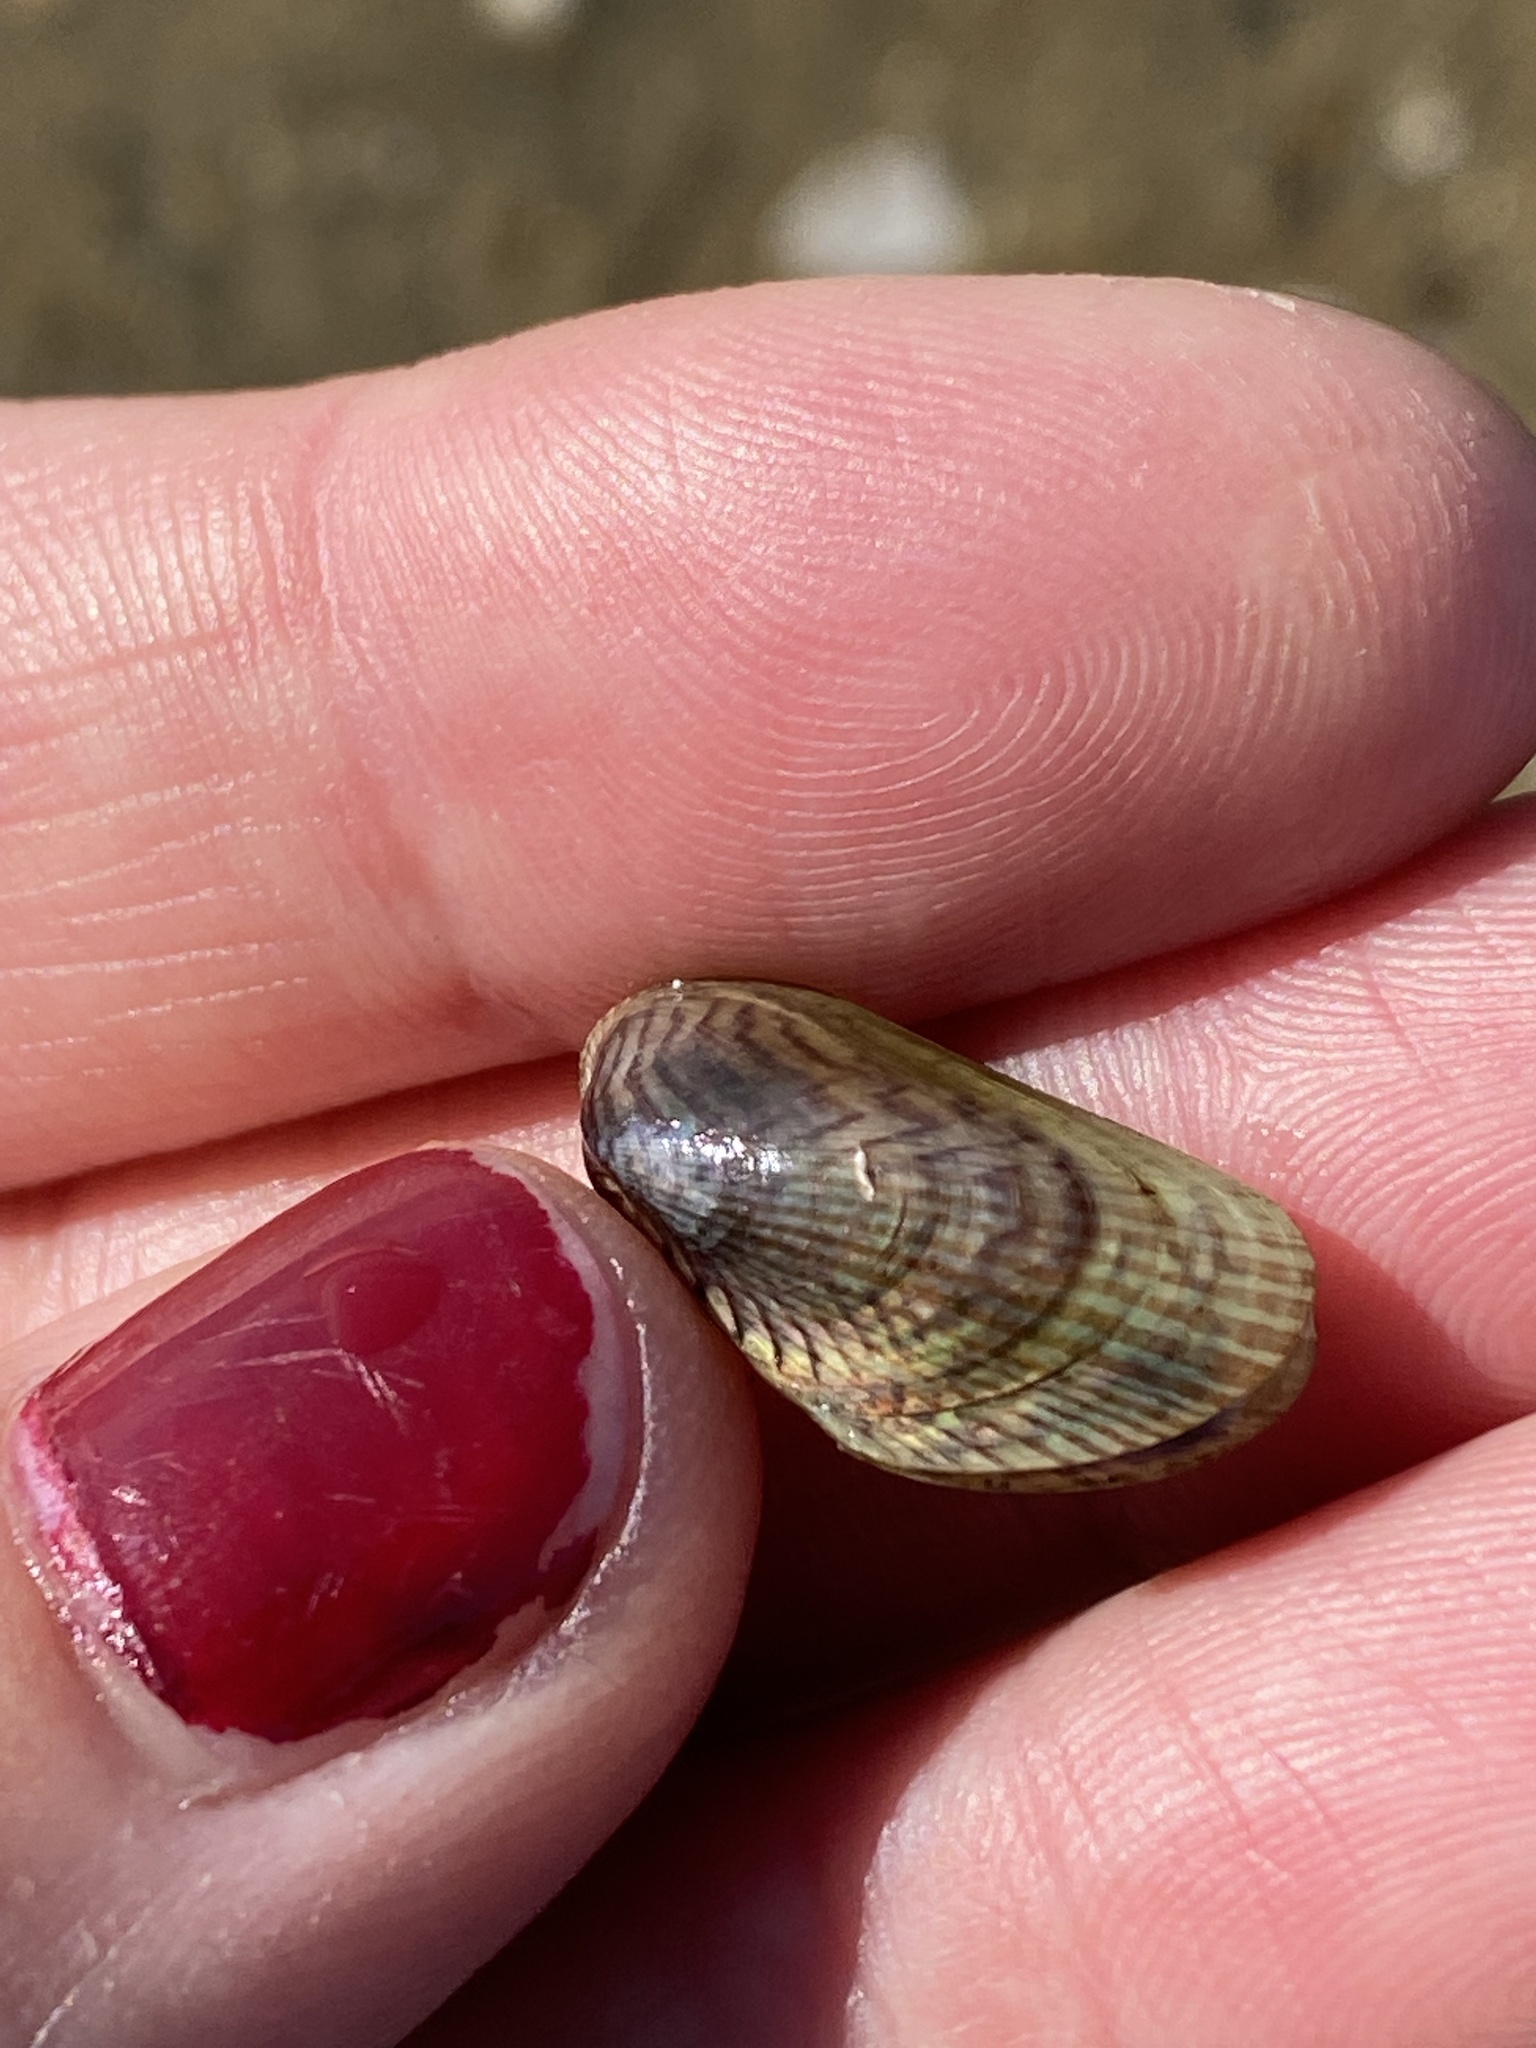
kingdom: Animalia
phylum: Mollusca
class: Bivalvia
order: Mytilida
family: Mytilidae
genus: Arcuatula
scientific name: Arcuatula senhousia
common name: Asian mussel
